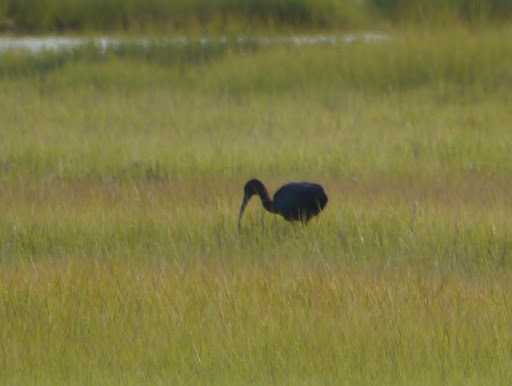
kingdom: Animalia
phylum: Chordata
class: Aves
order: Pelecaniformes
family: Threskiornithidae
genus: Plegadis
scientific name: Plegadis falcinellus
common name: Glossy ibis
